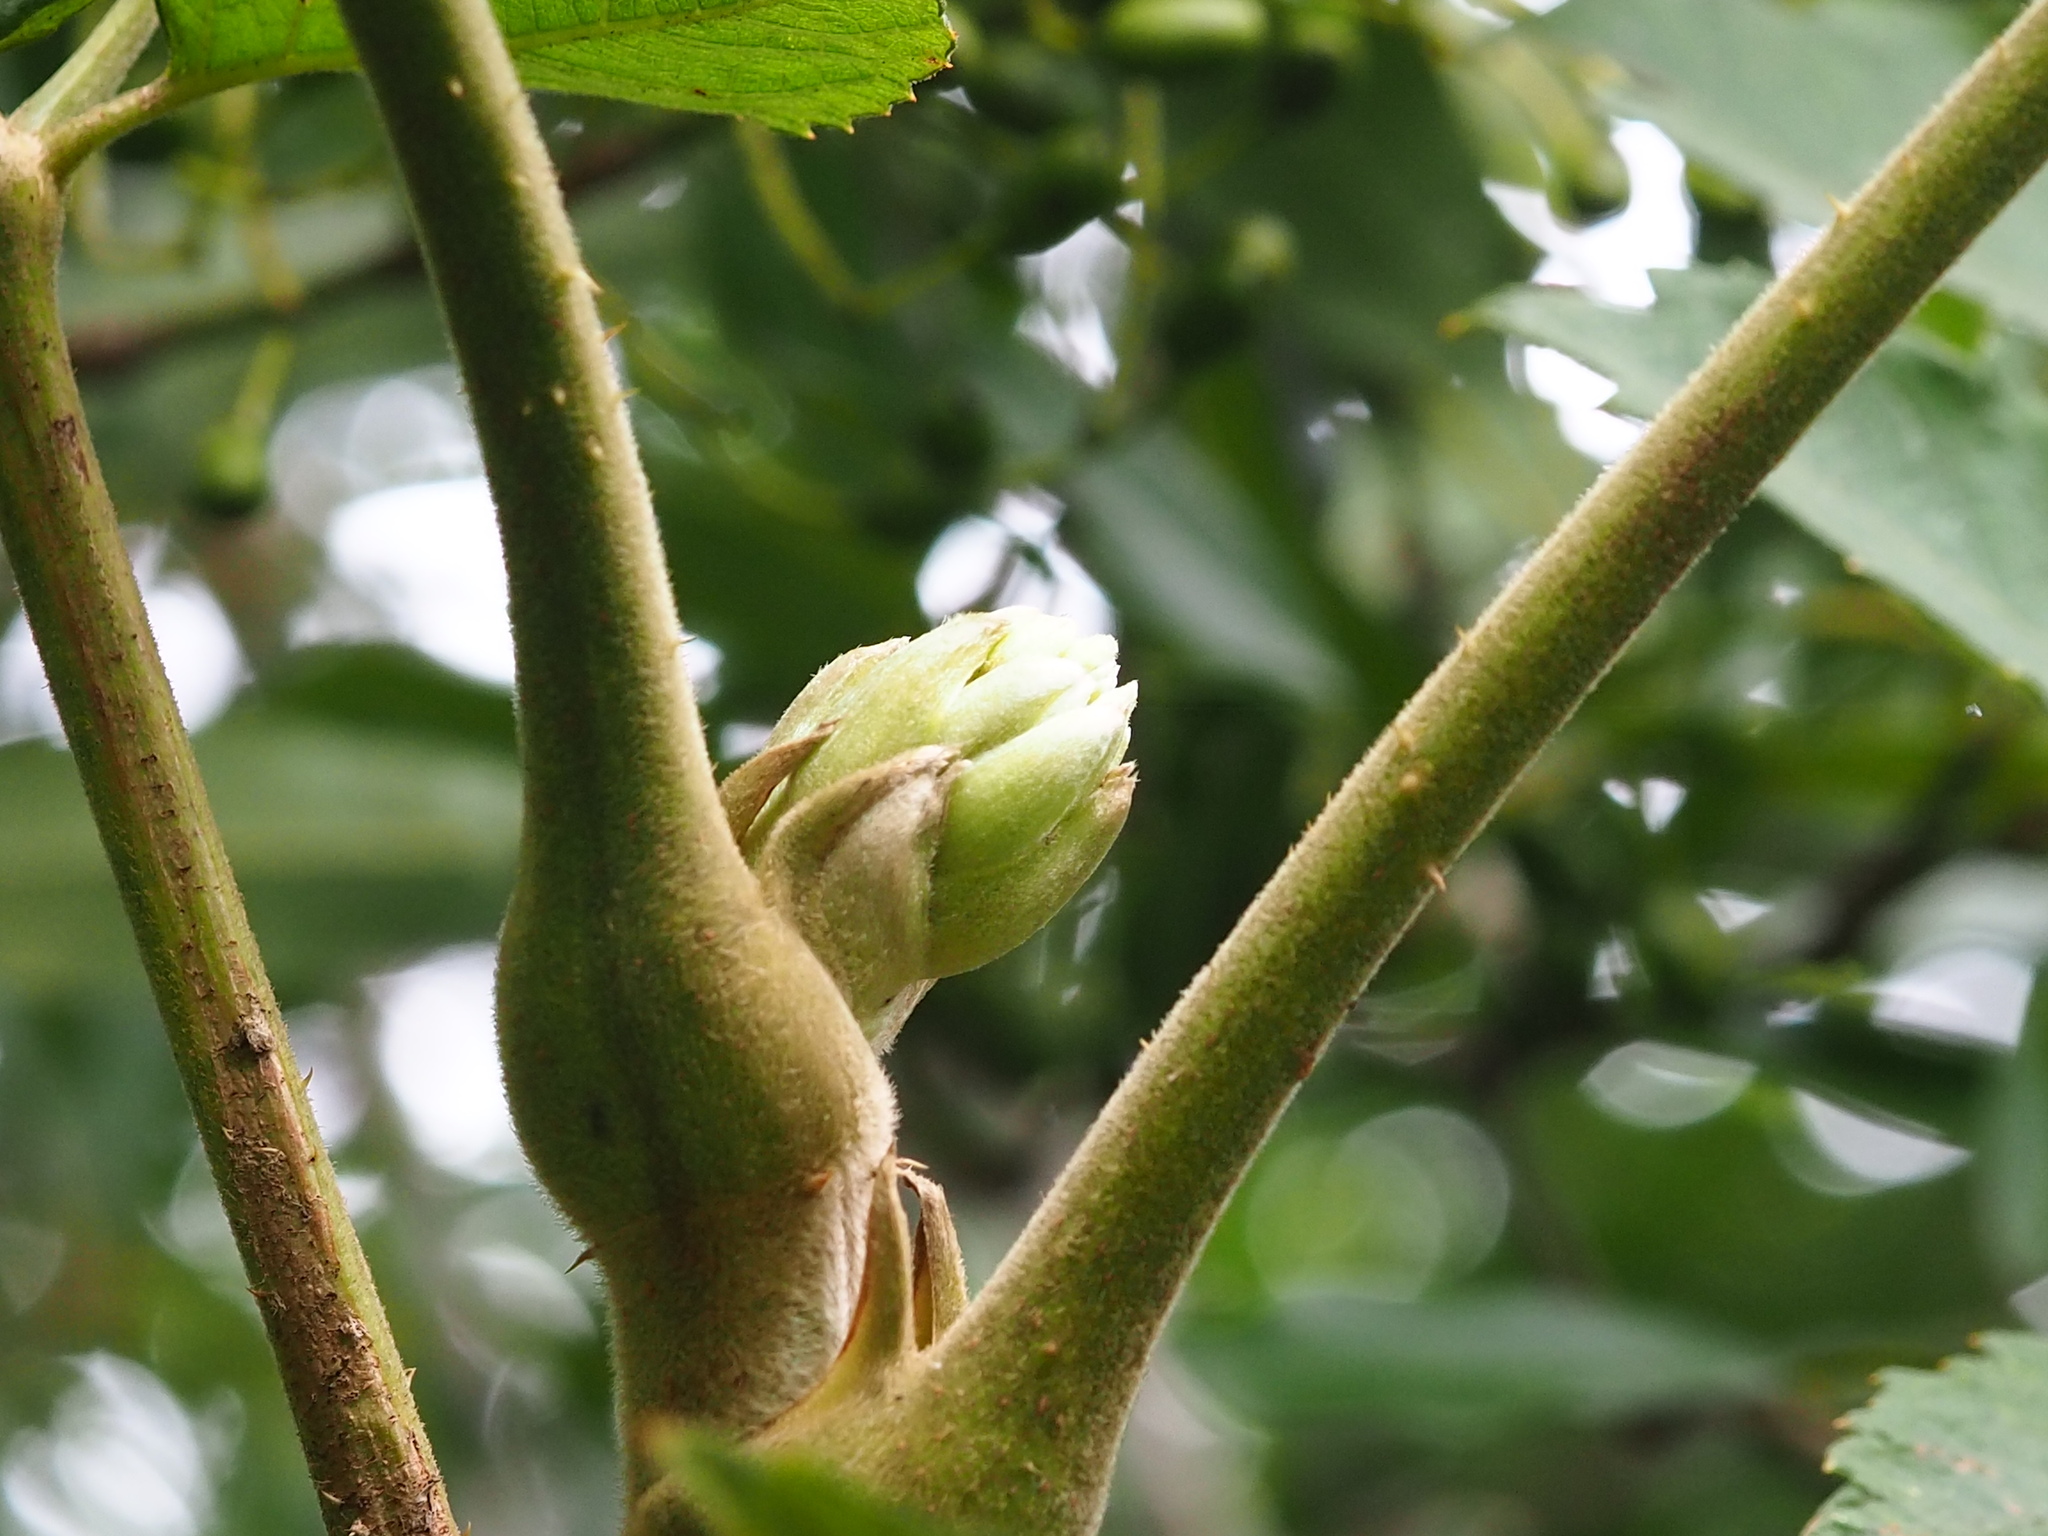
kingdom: Plantae
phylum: Tracheophyta
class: Magnoliopsida
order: Apiales
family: Araliaceae
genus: Aralia
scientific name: Aralia decaisneana
